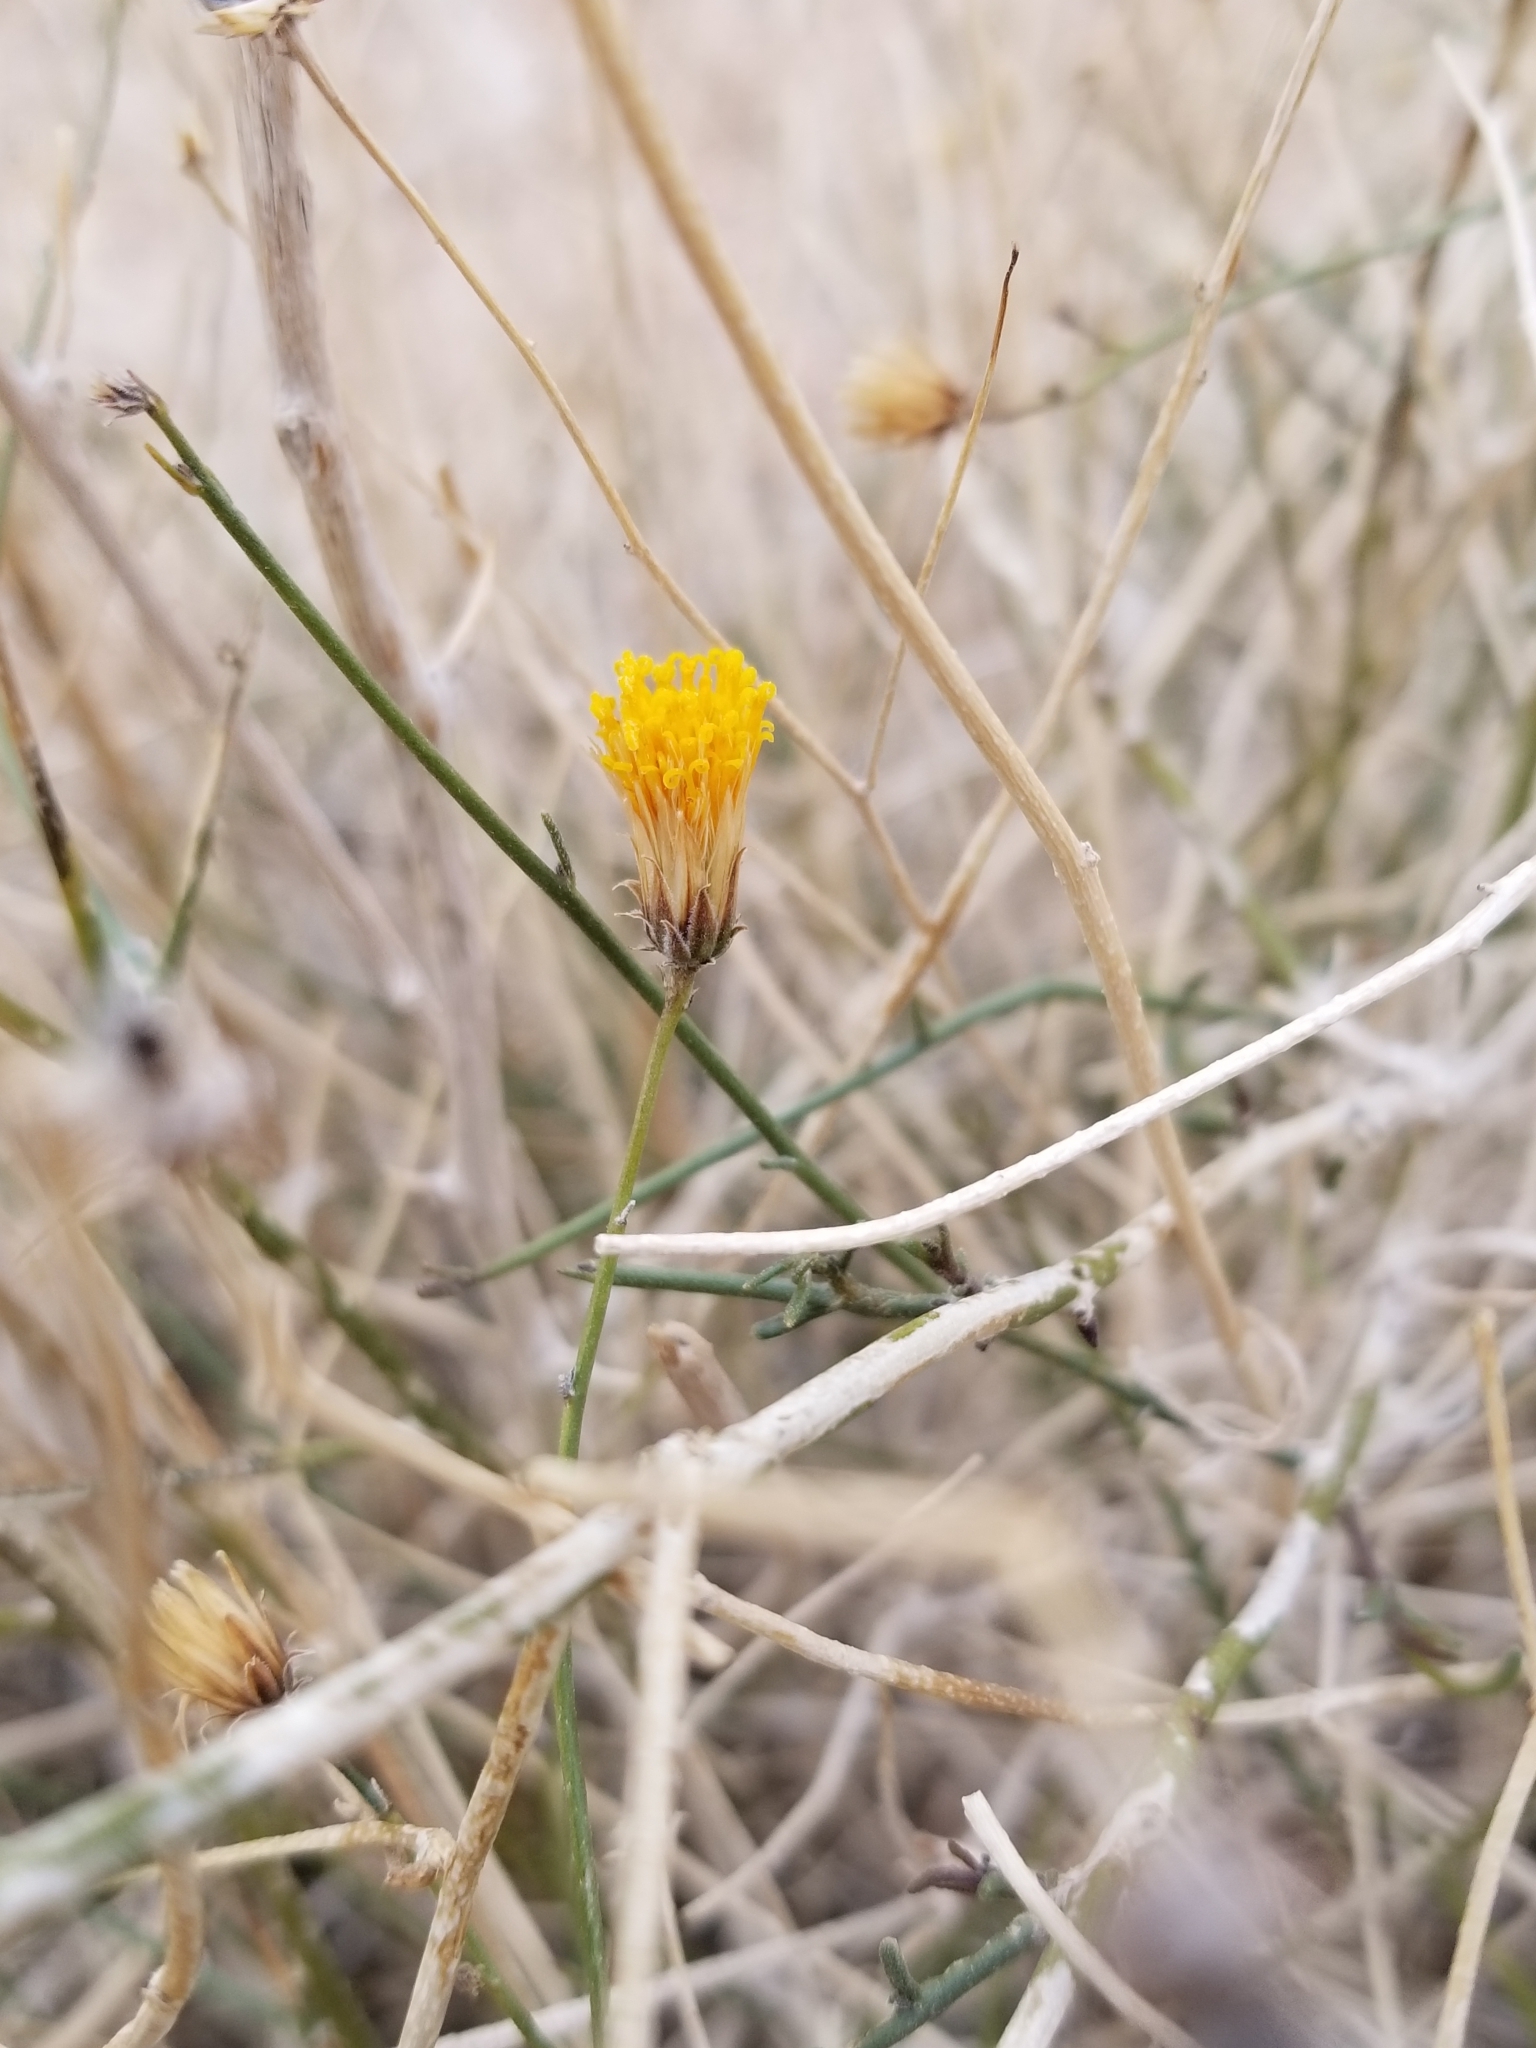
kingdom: Plantae
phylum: Tracheophyta
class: Magnoliopsida
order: Asterales
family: Asteraceae
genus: Bebbia
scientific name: Bebbia juncea
